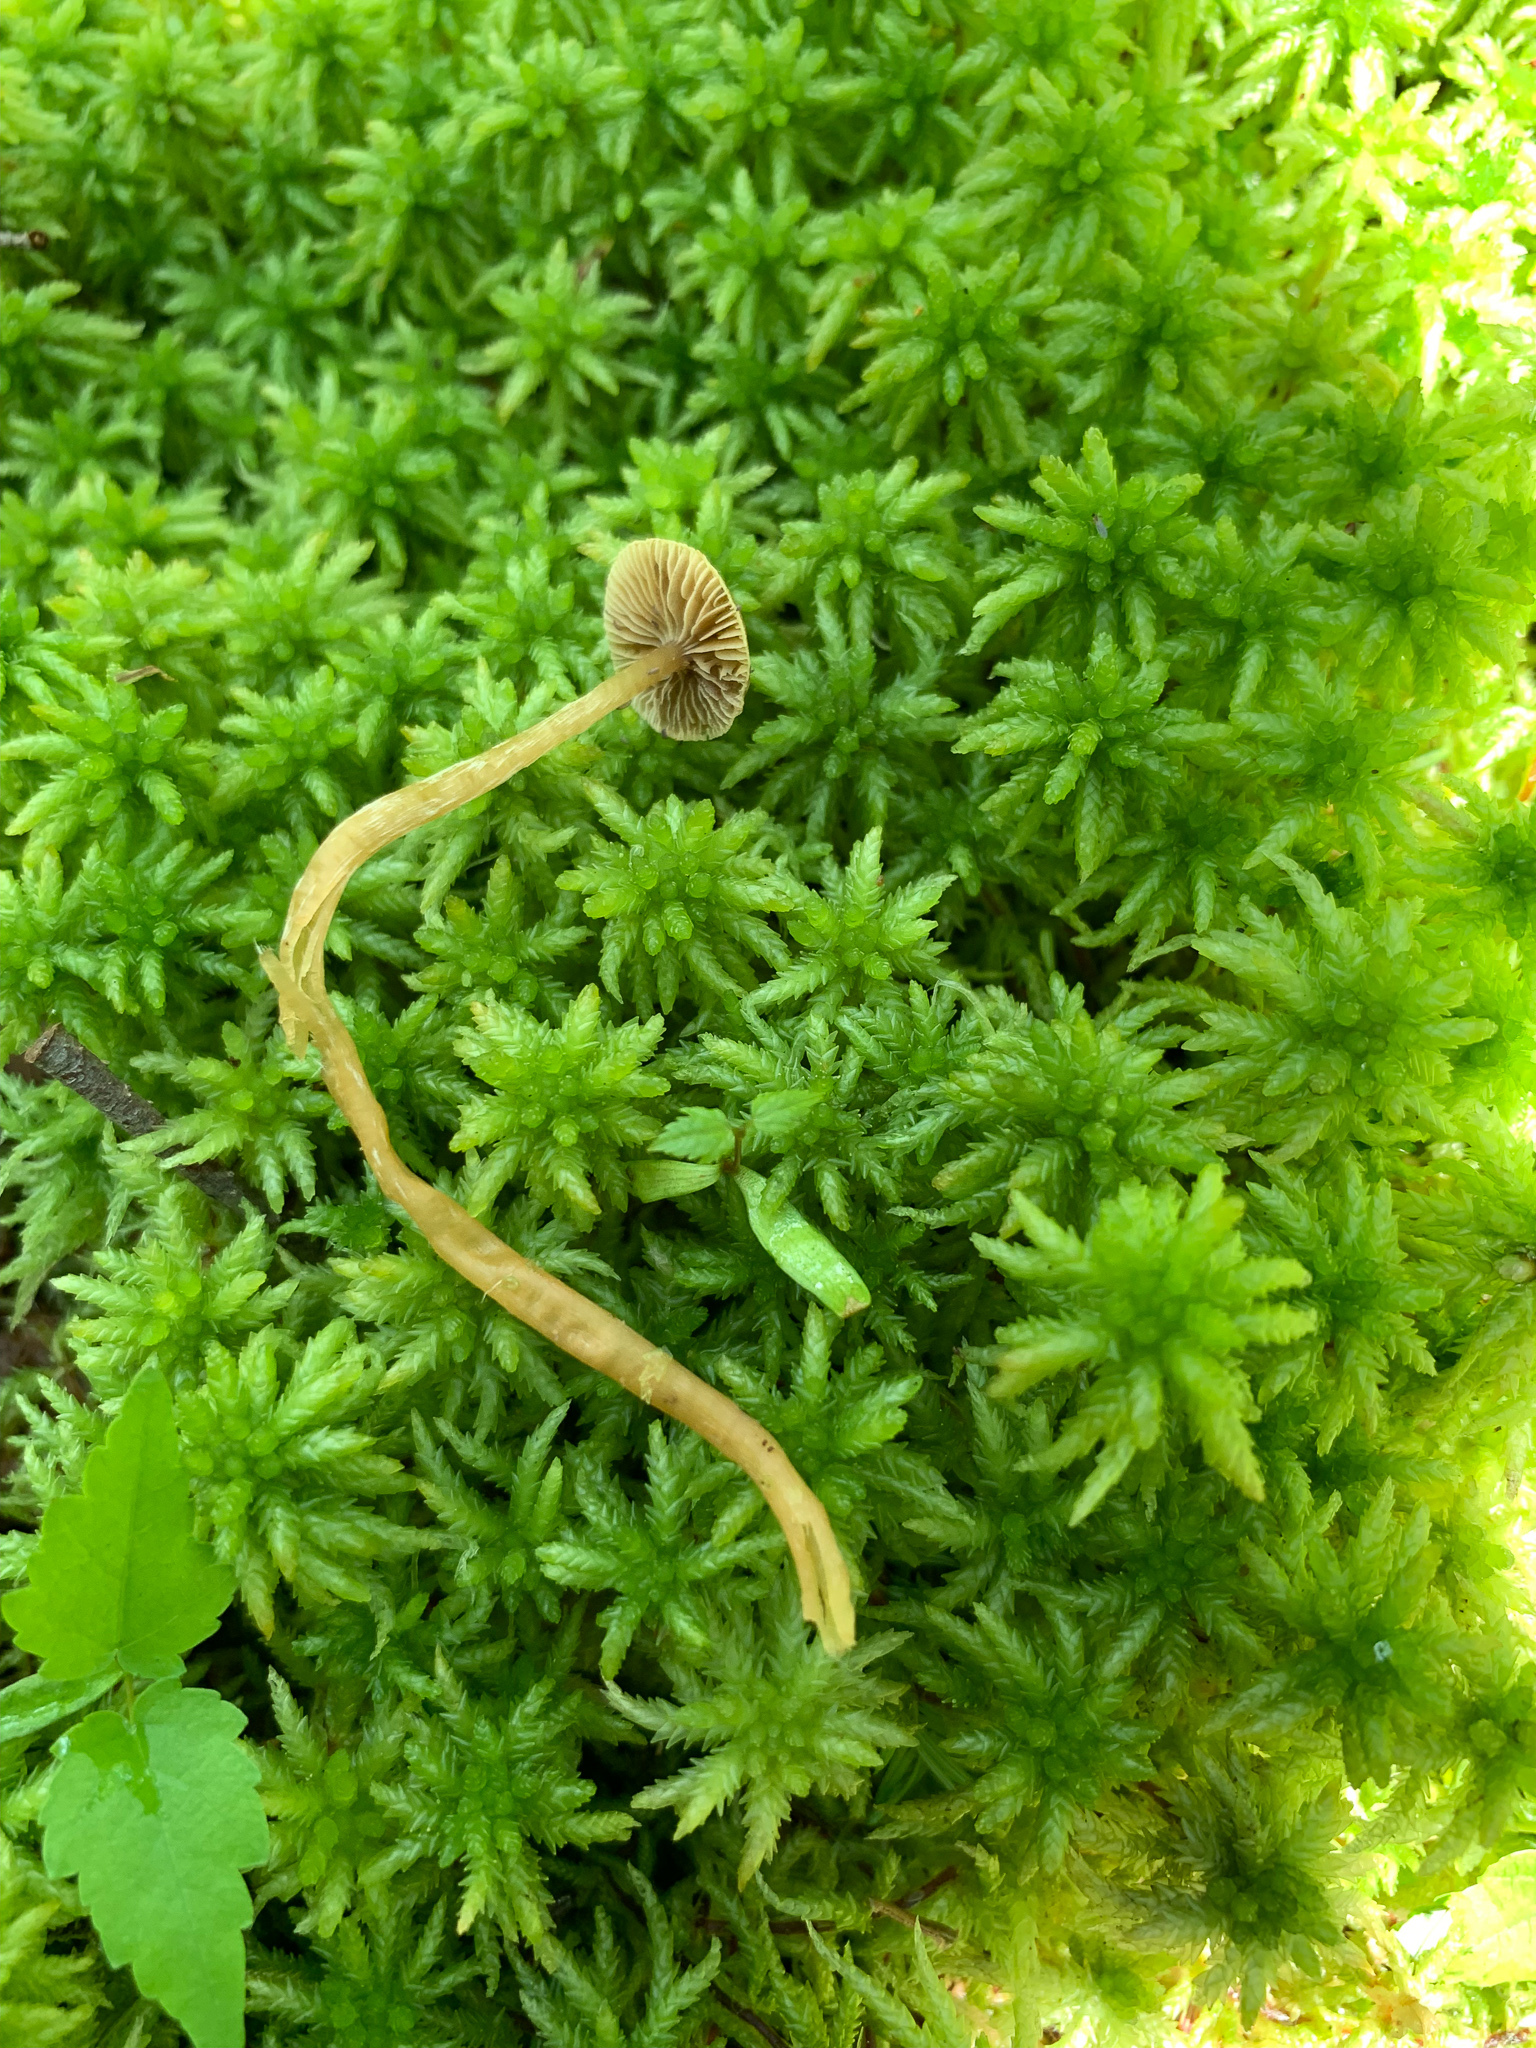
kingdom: Fungi
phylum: Basidiomycota
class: Agaricomycetes
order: Agaricales
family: Strophariaceae
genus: Hypholoma
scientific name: Hypholoma elongatum
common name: Sphagnum brownie
